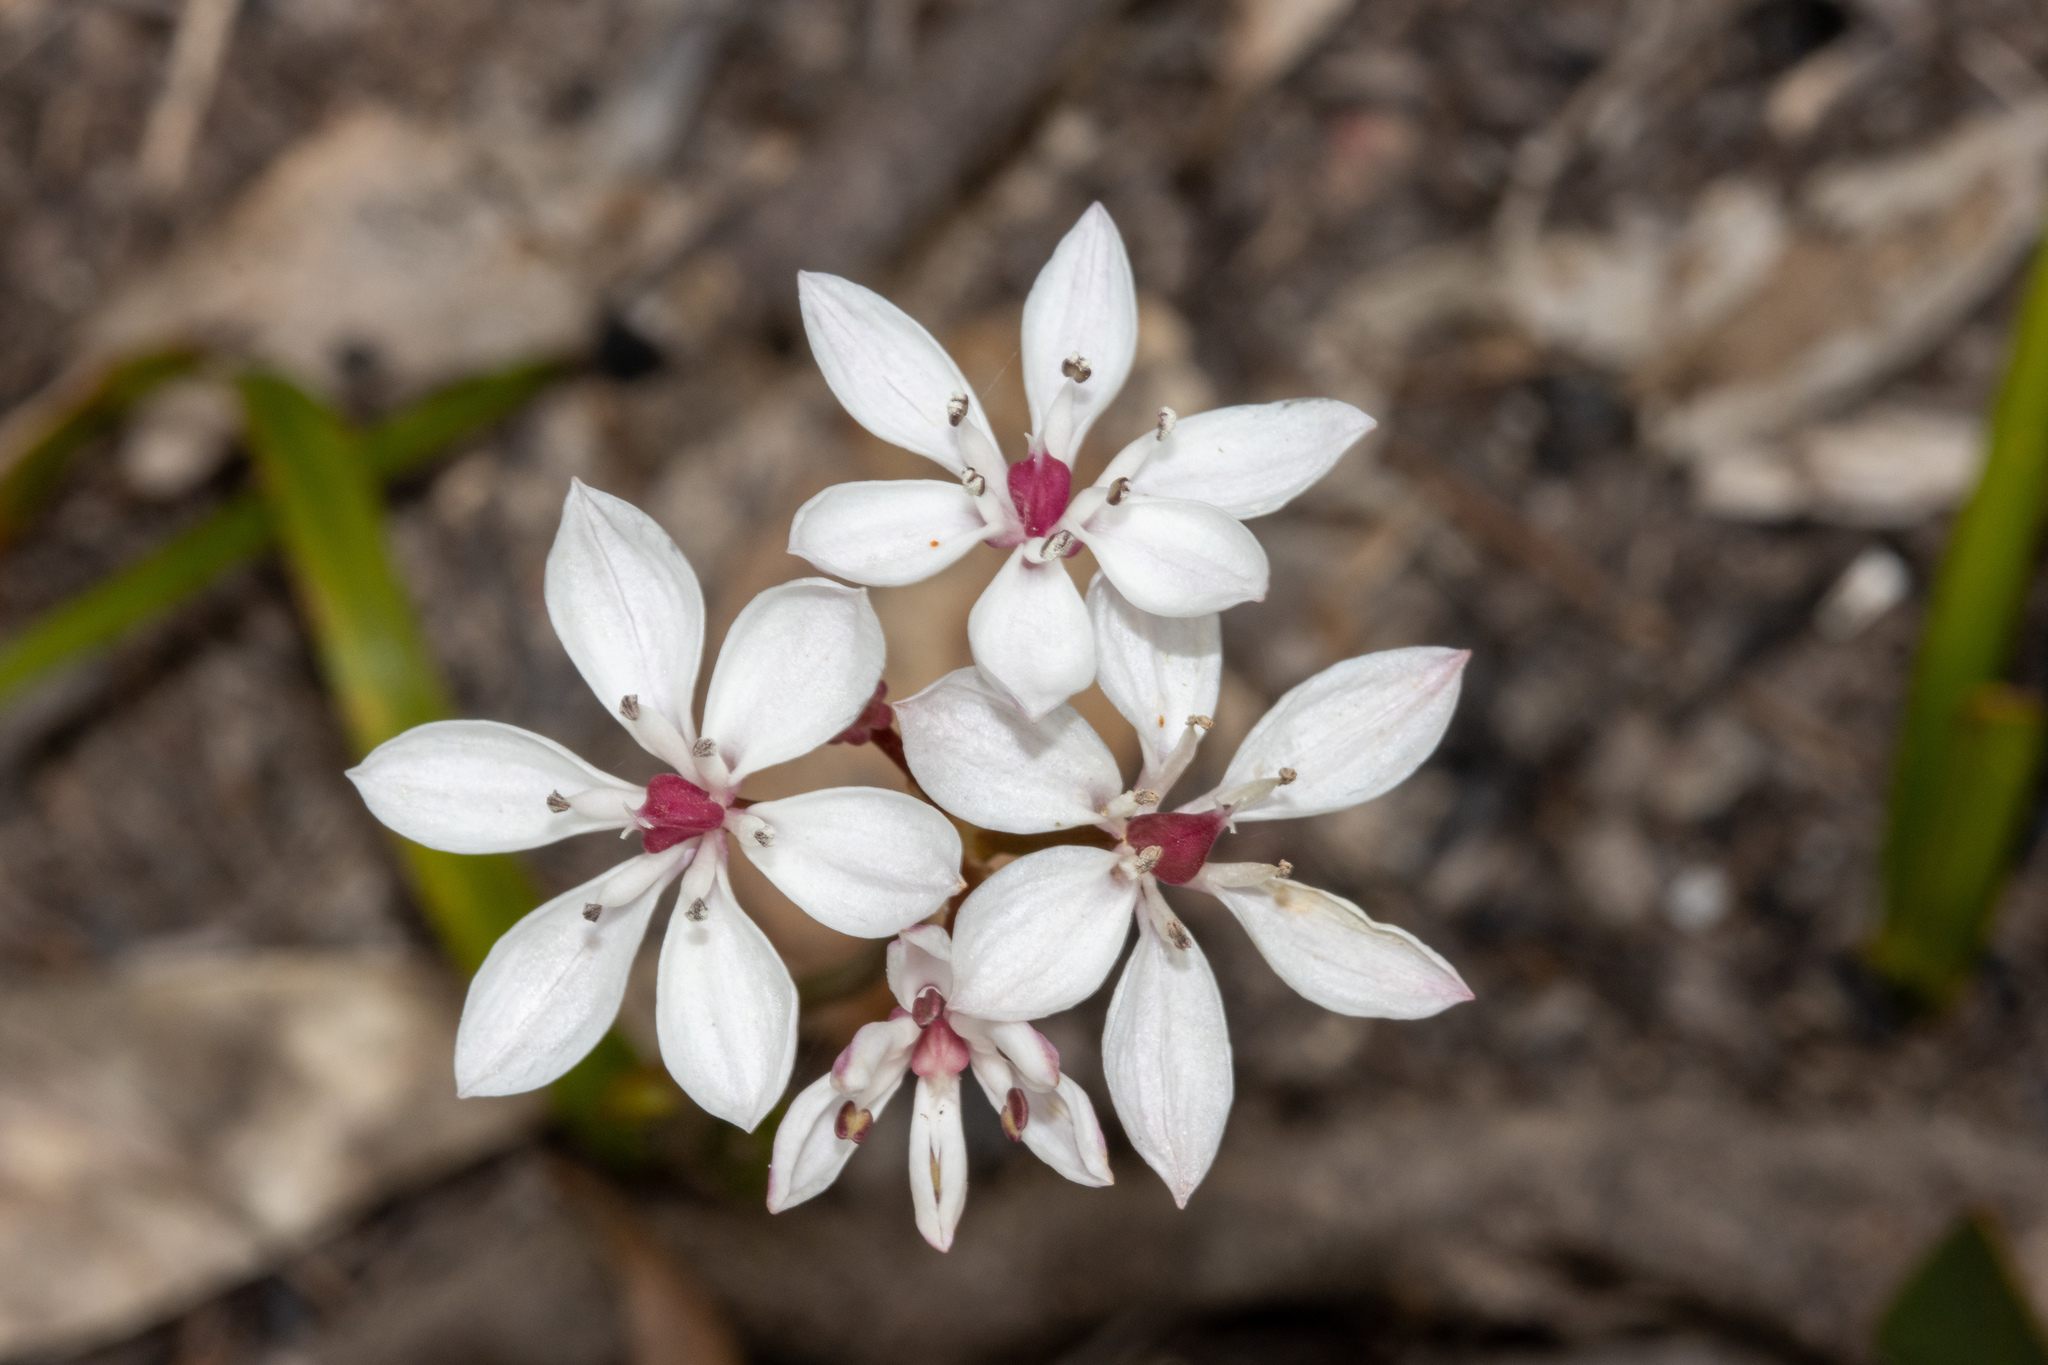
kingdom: Plantae
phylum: Tracheophyta
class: Liliopsida
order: Liliales
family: Colchicaceae
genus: Burchardia
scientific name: Burchardia umbellata
